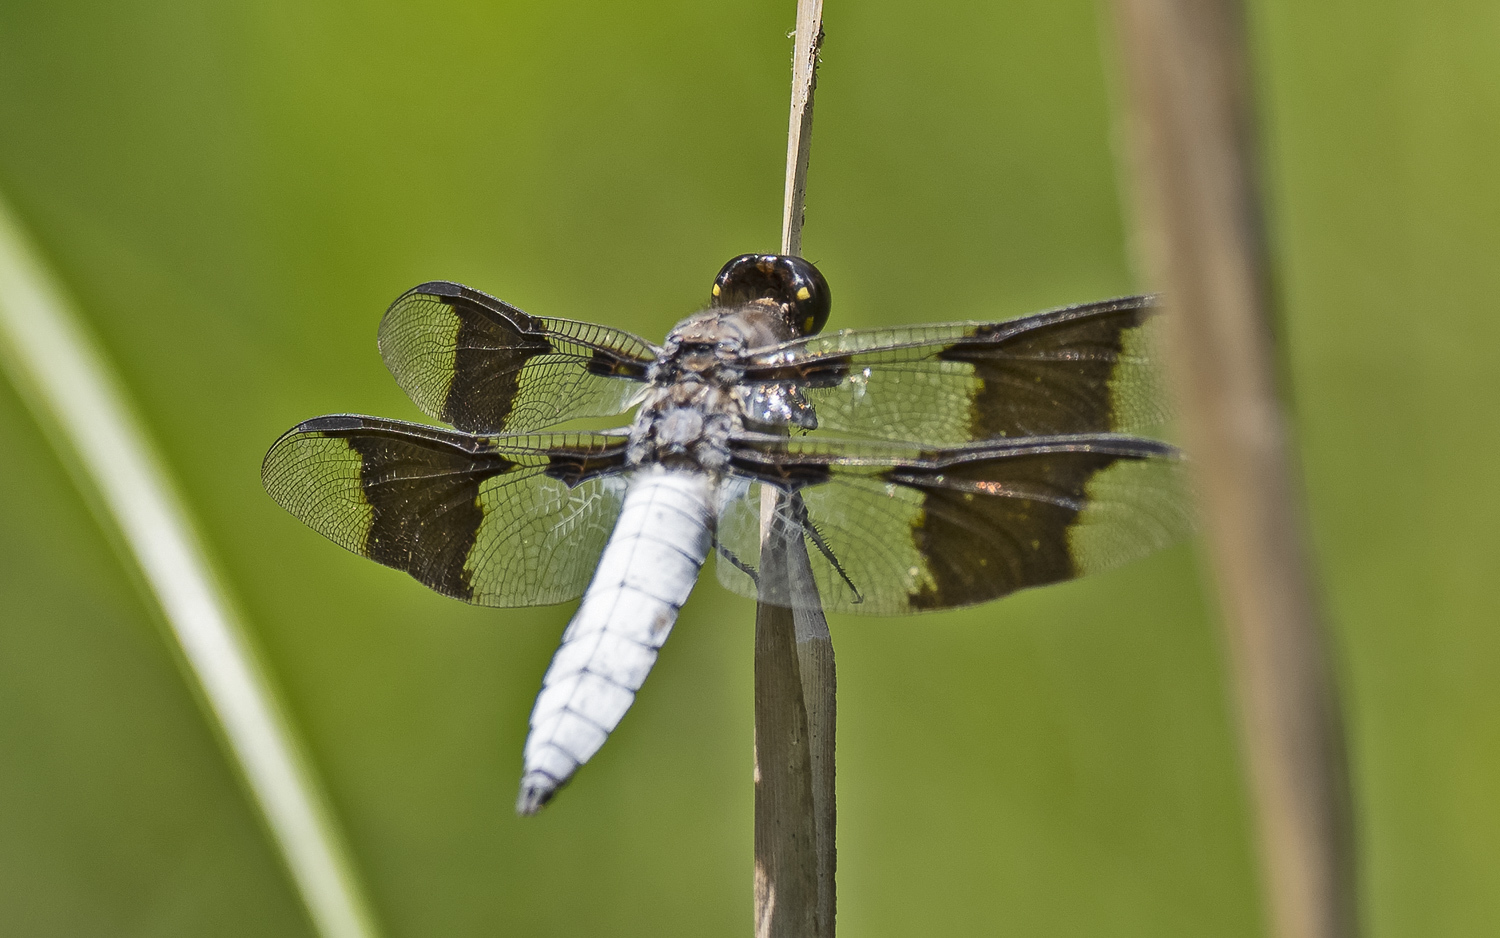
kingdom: Animalia
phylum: Arthropoda
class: Insecta
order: Odonata
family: Libellulidae
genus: Plathemis
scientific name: Plathemis lydia
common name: Common whitetail
